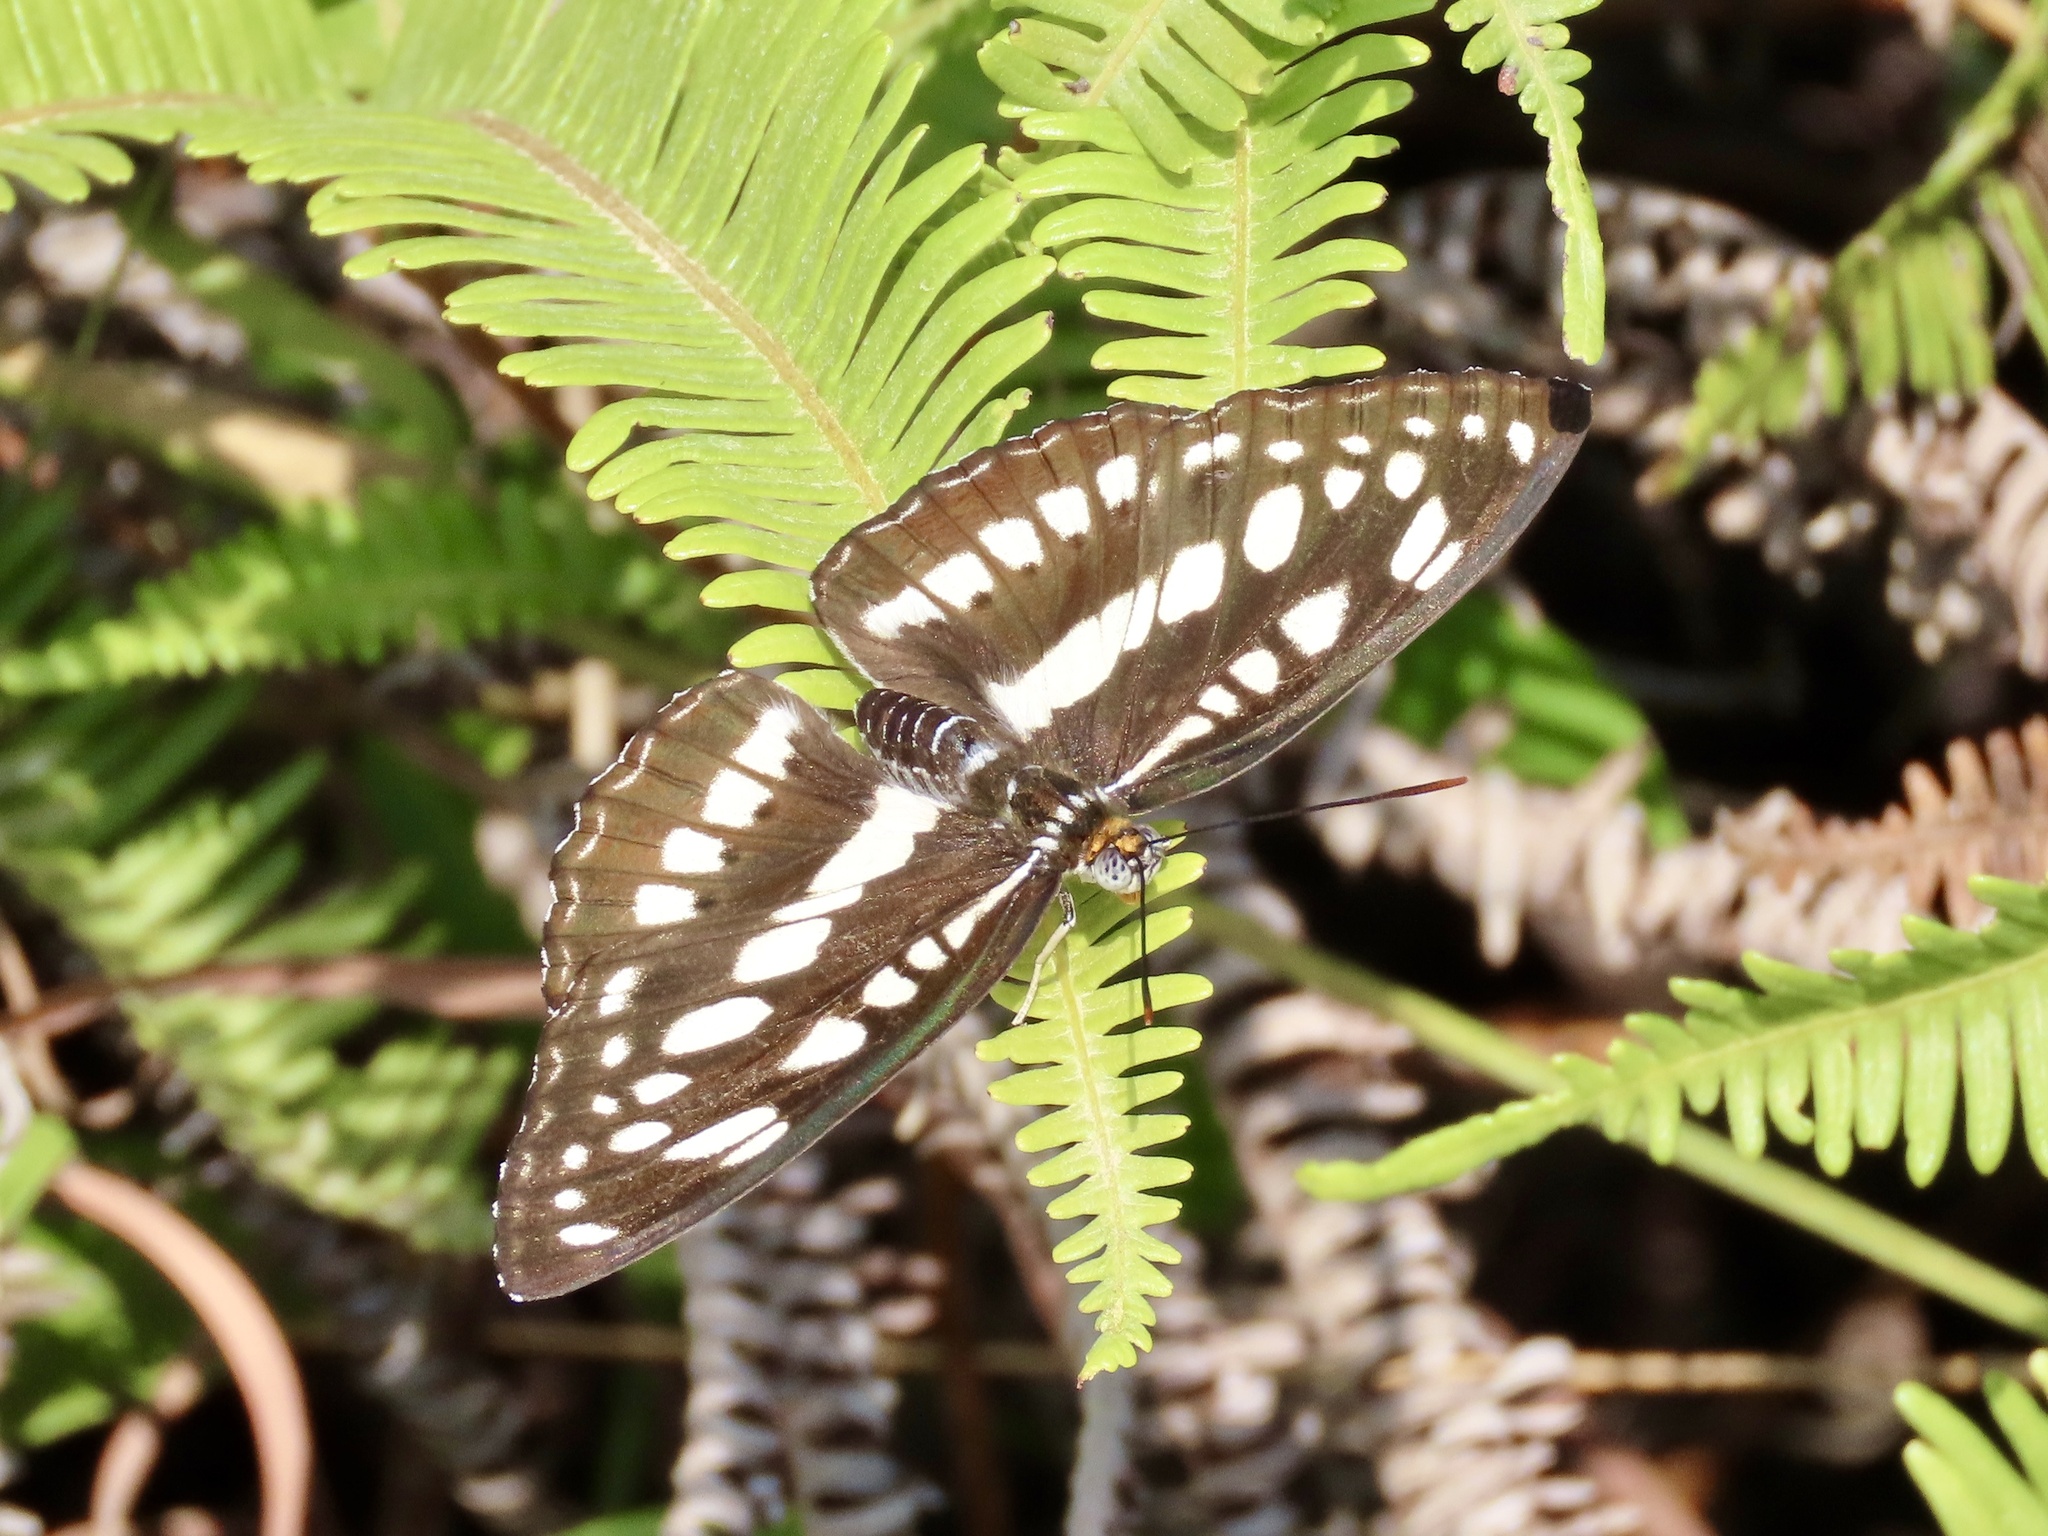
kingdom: Animalia
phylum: Arthropoda
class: Insecta
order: Lepidoptera
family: Nymphalidae
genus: Parathyma
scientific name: Parathyma perius
